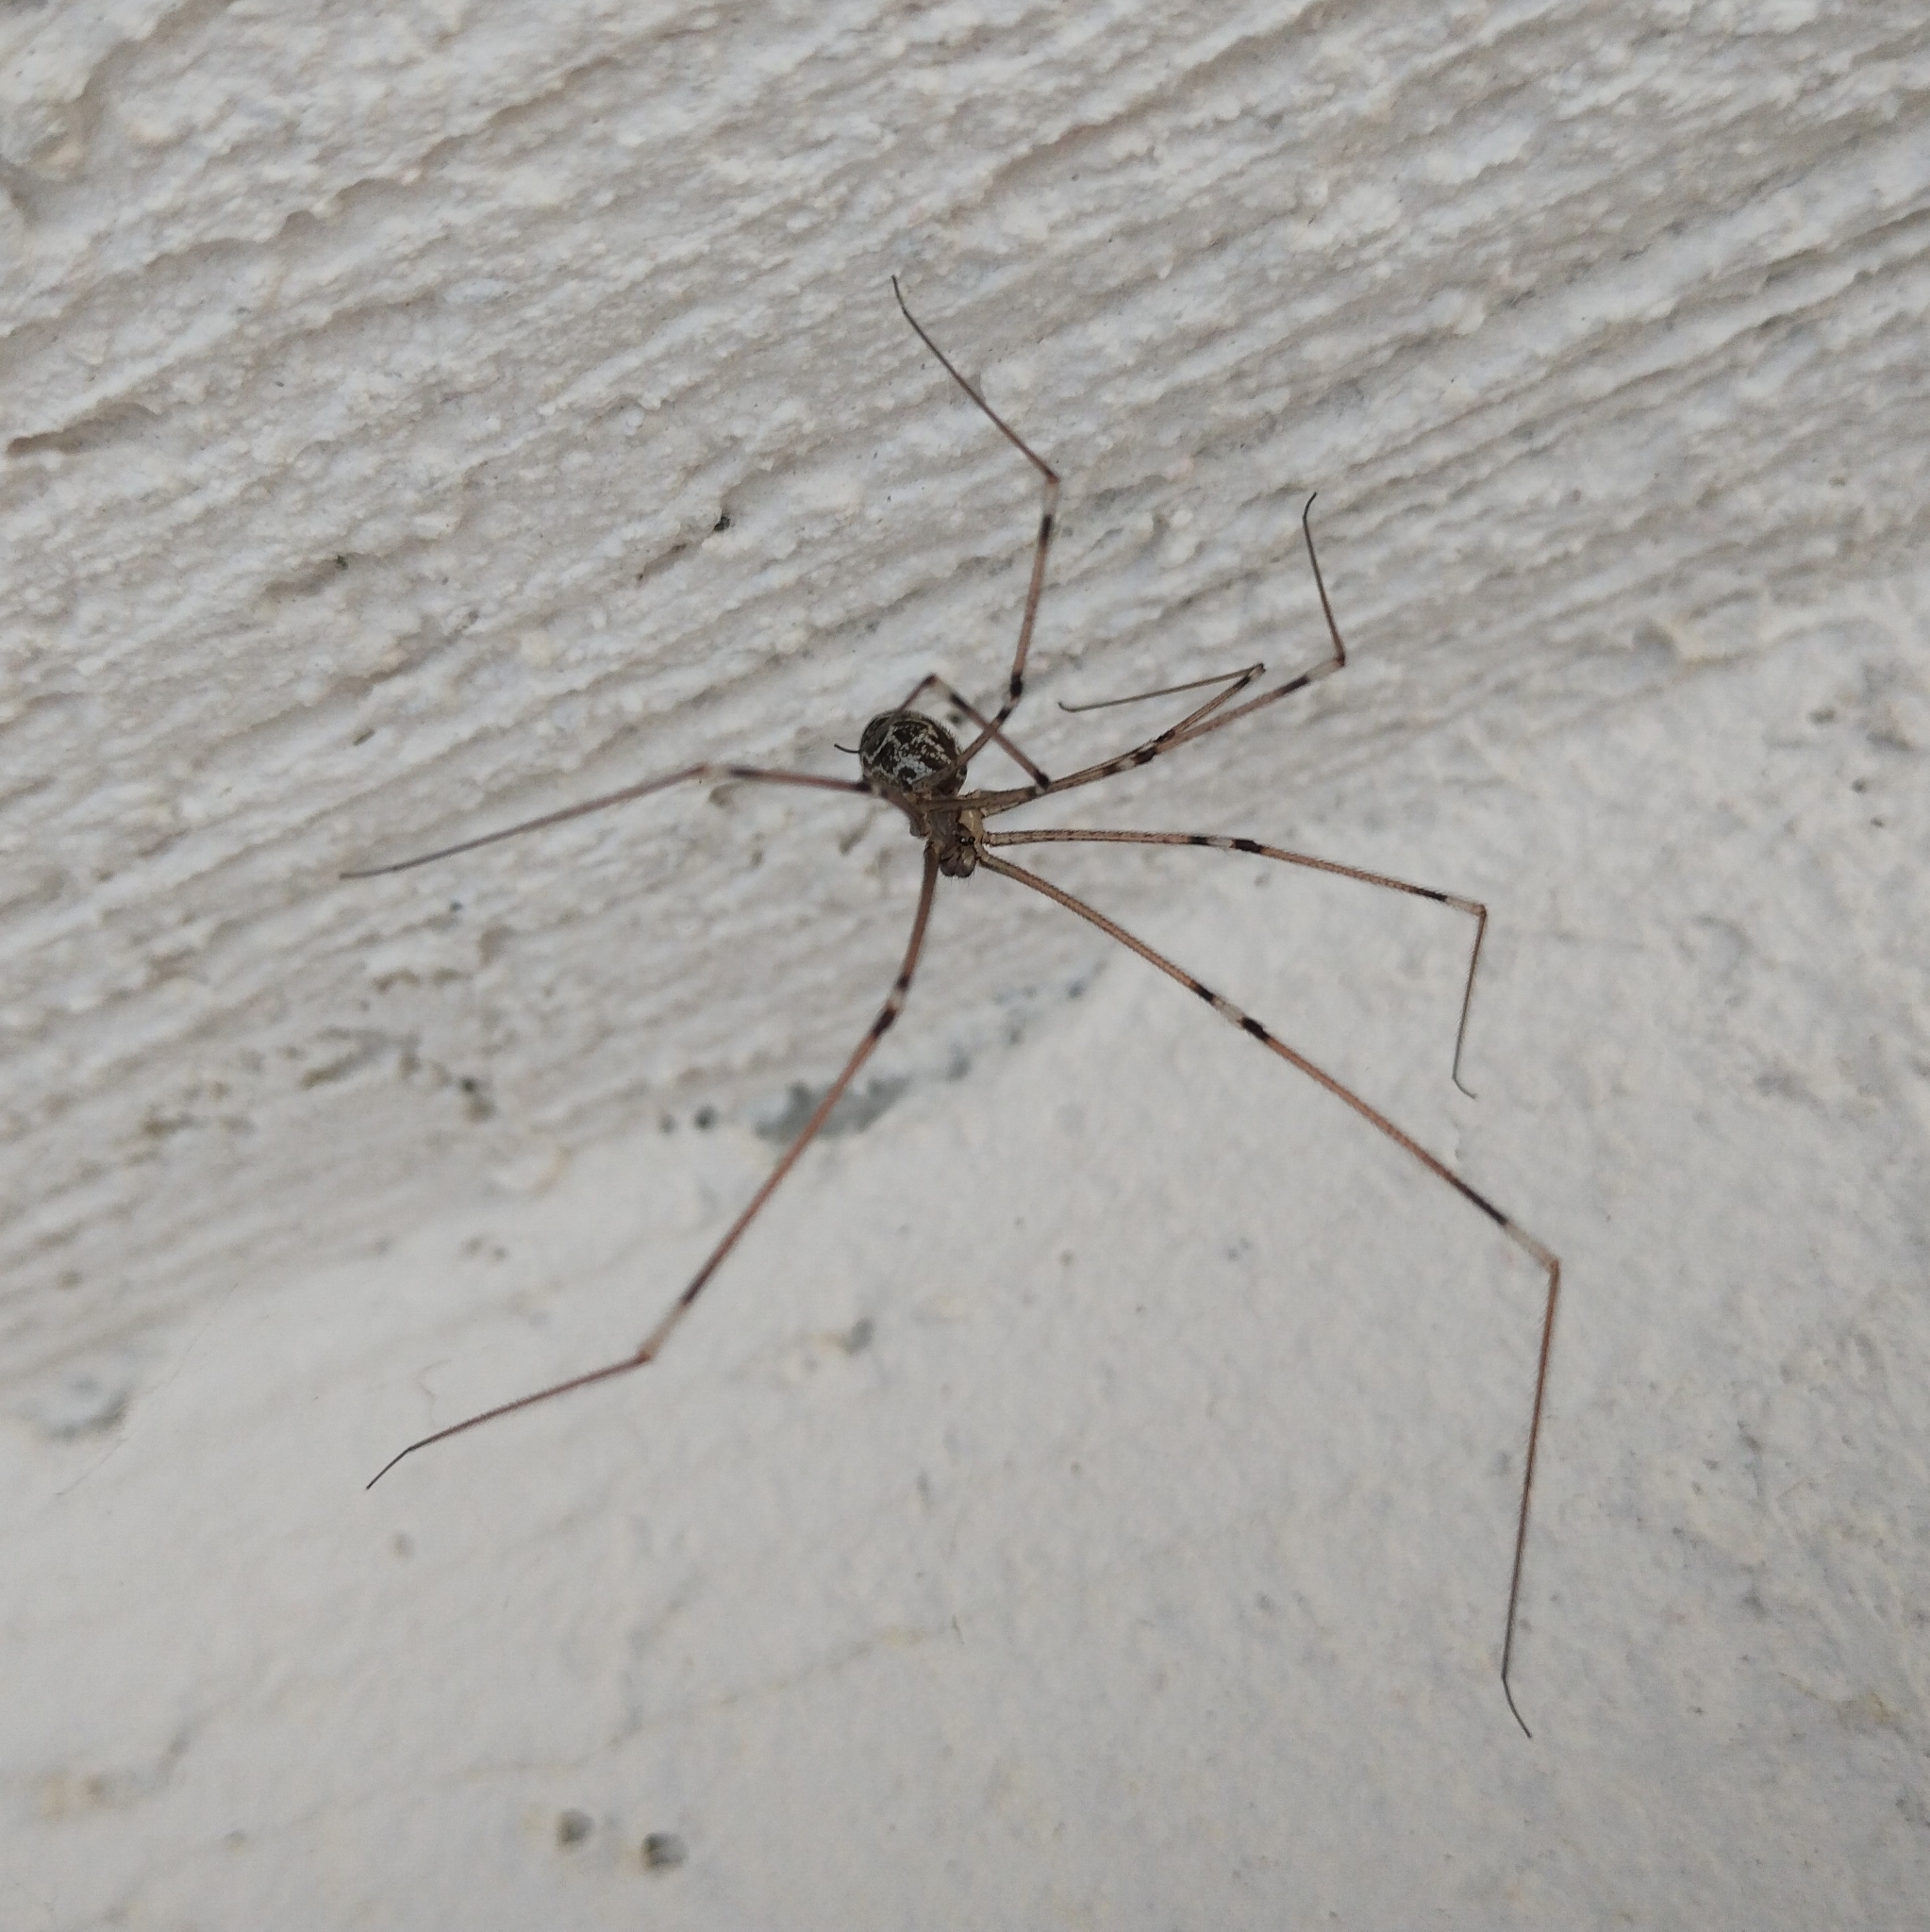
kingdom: Animalia
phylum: Arthropoda
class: Arachnida
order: Araneae
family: Pholcidae
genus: Holocnemus
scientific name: Holocnemus pluchei
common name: Marbled cellar spider
